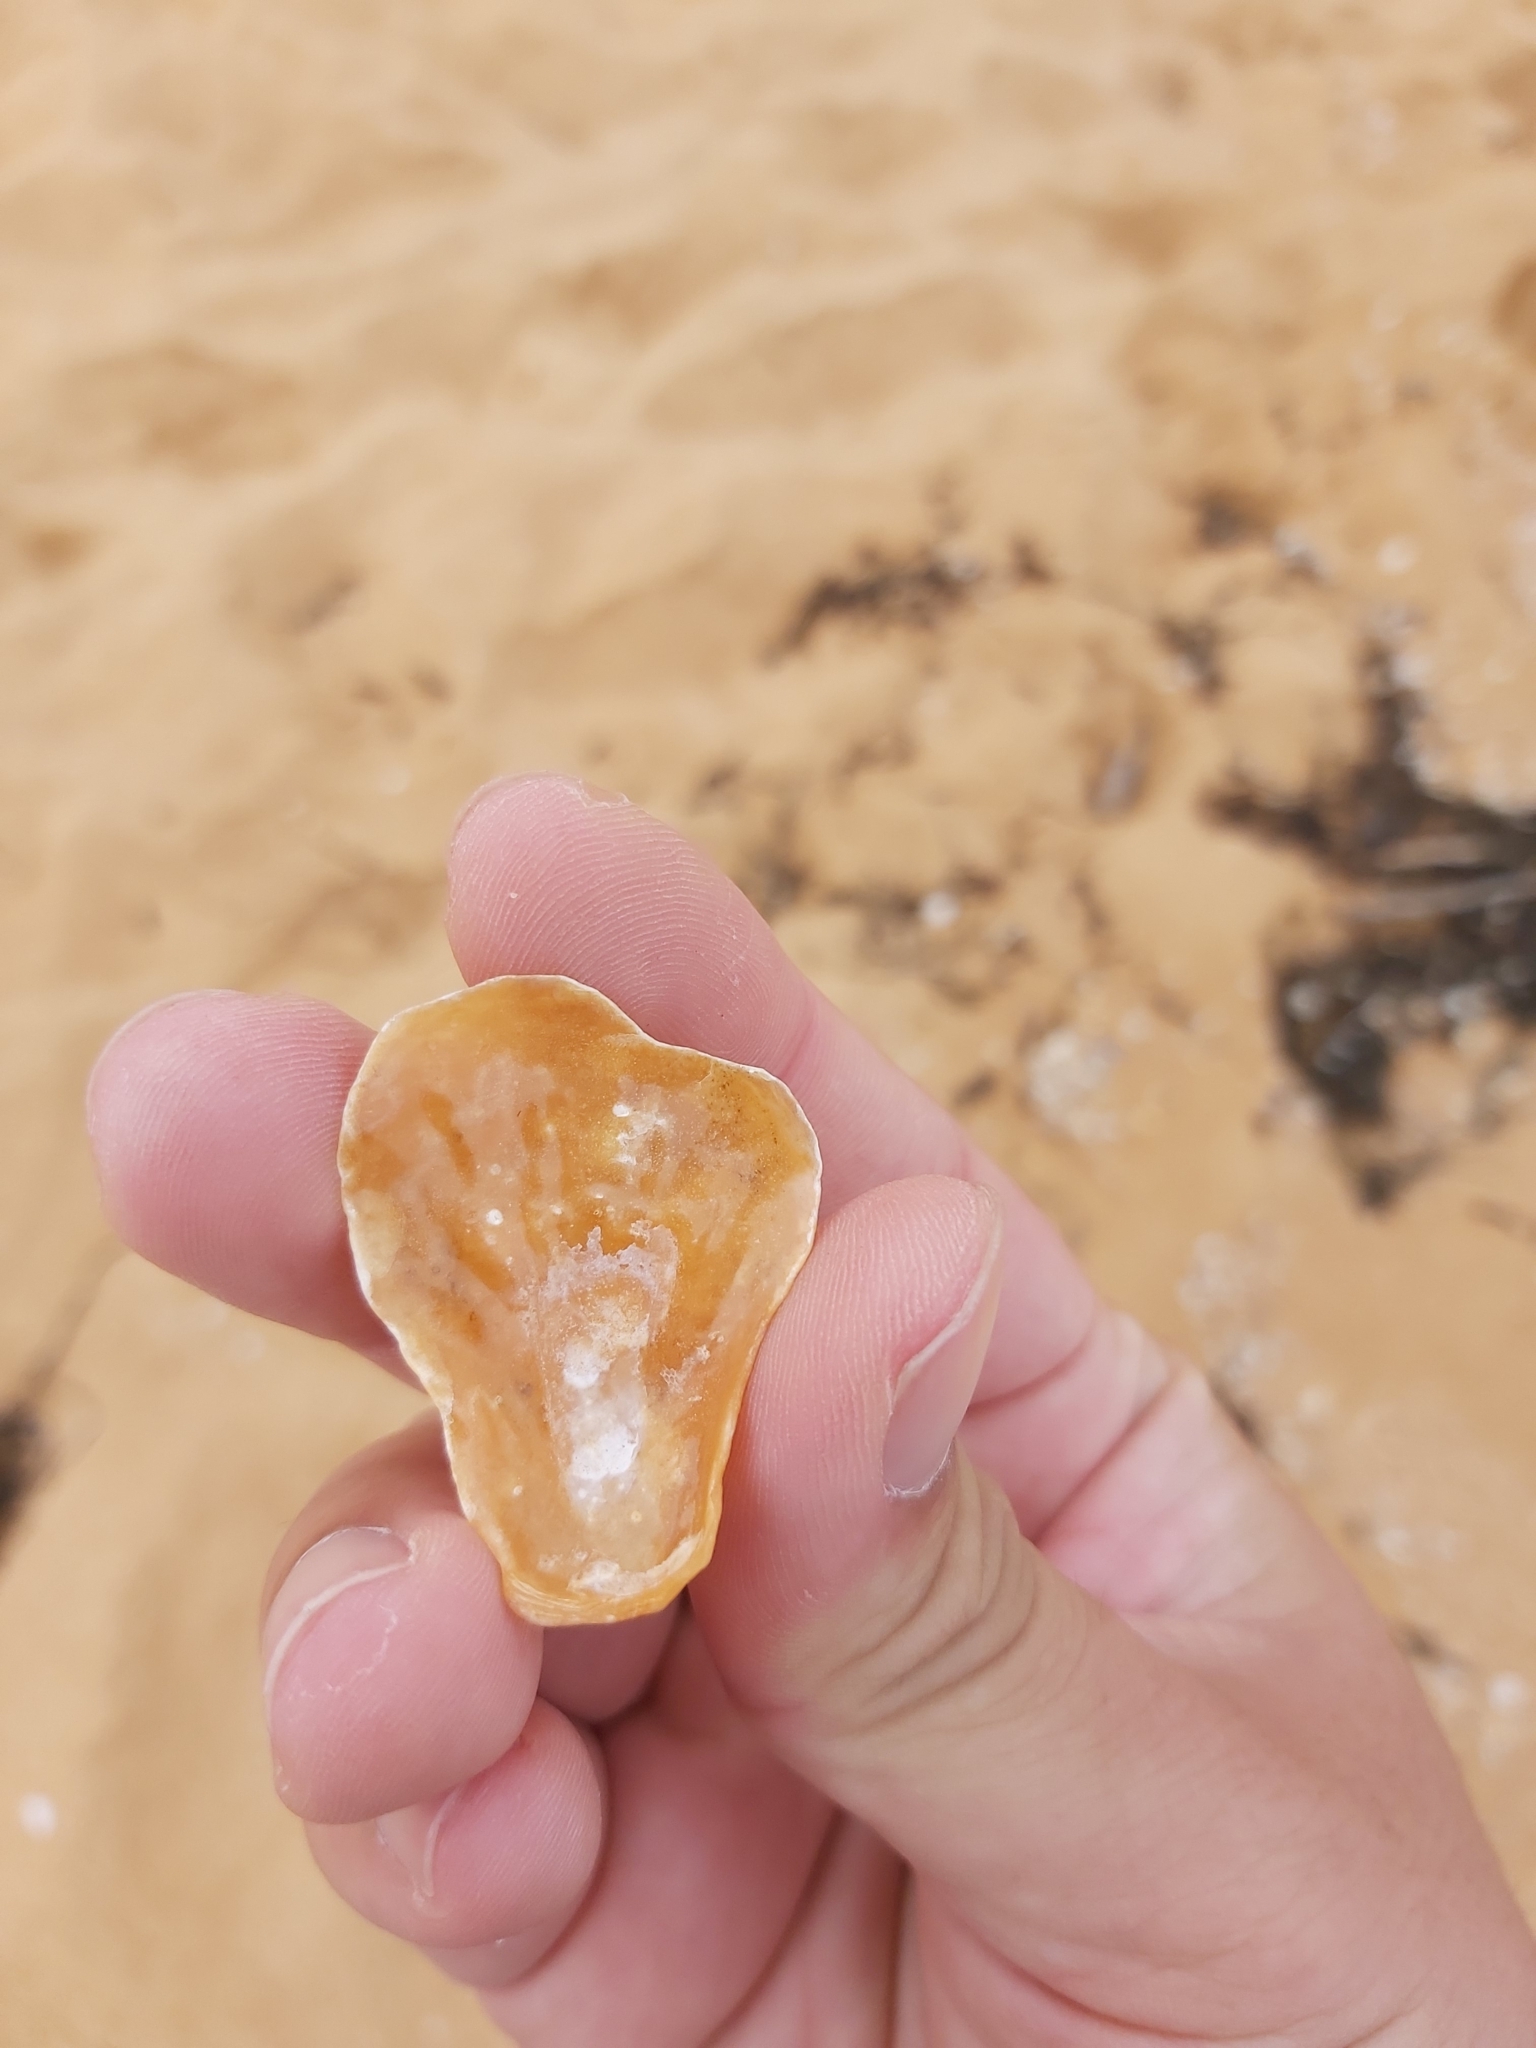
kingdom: Animalia
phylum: Mollusca
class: Bivalvia
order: Pectinida
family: Anomiidae
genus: Anomia
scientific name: Anomia trigonopsis
